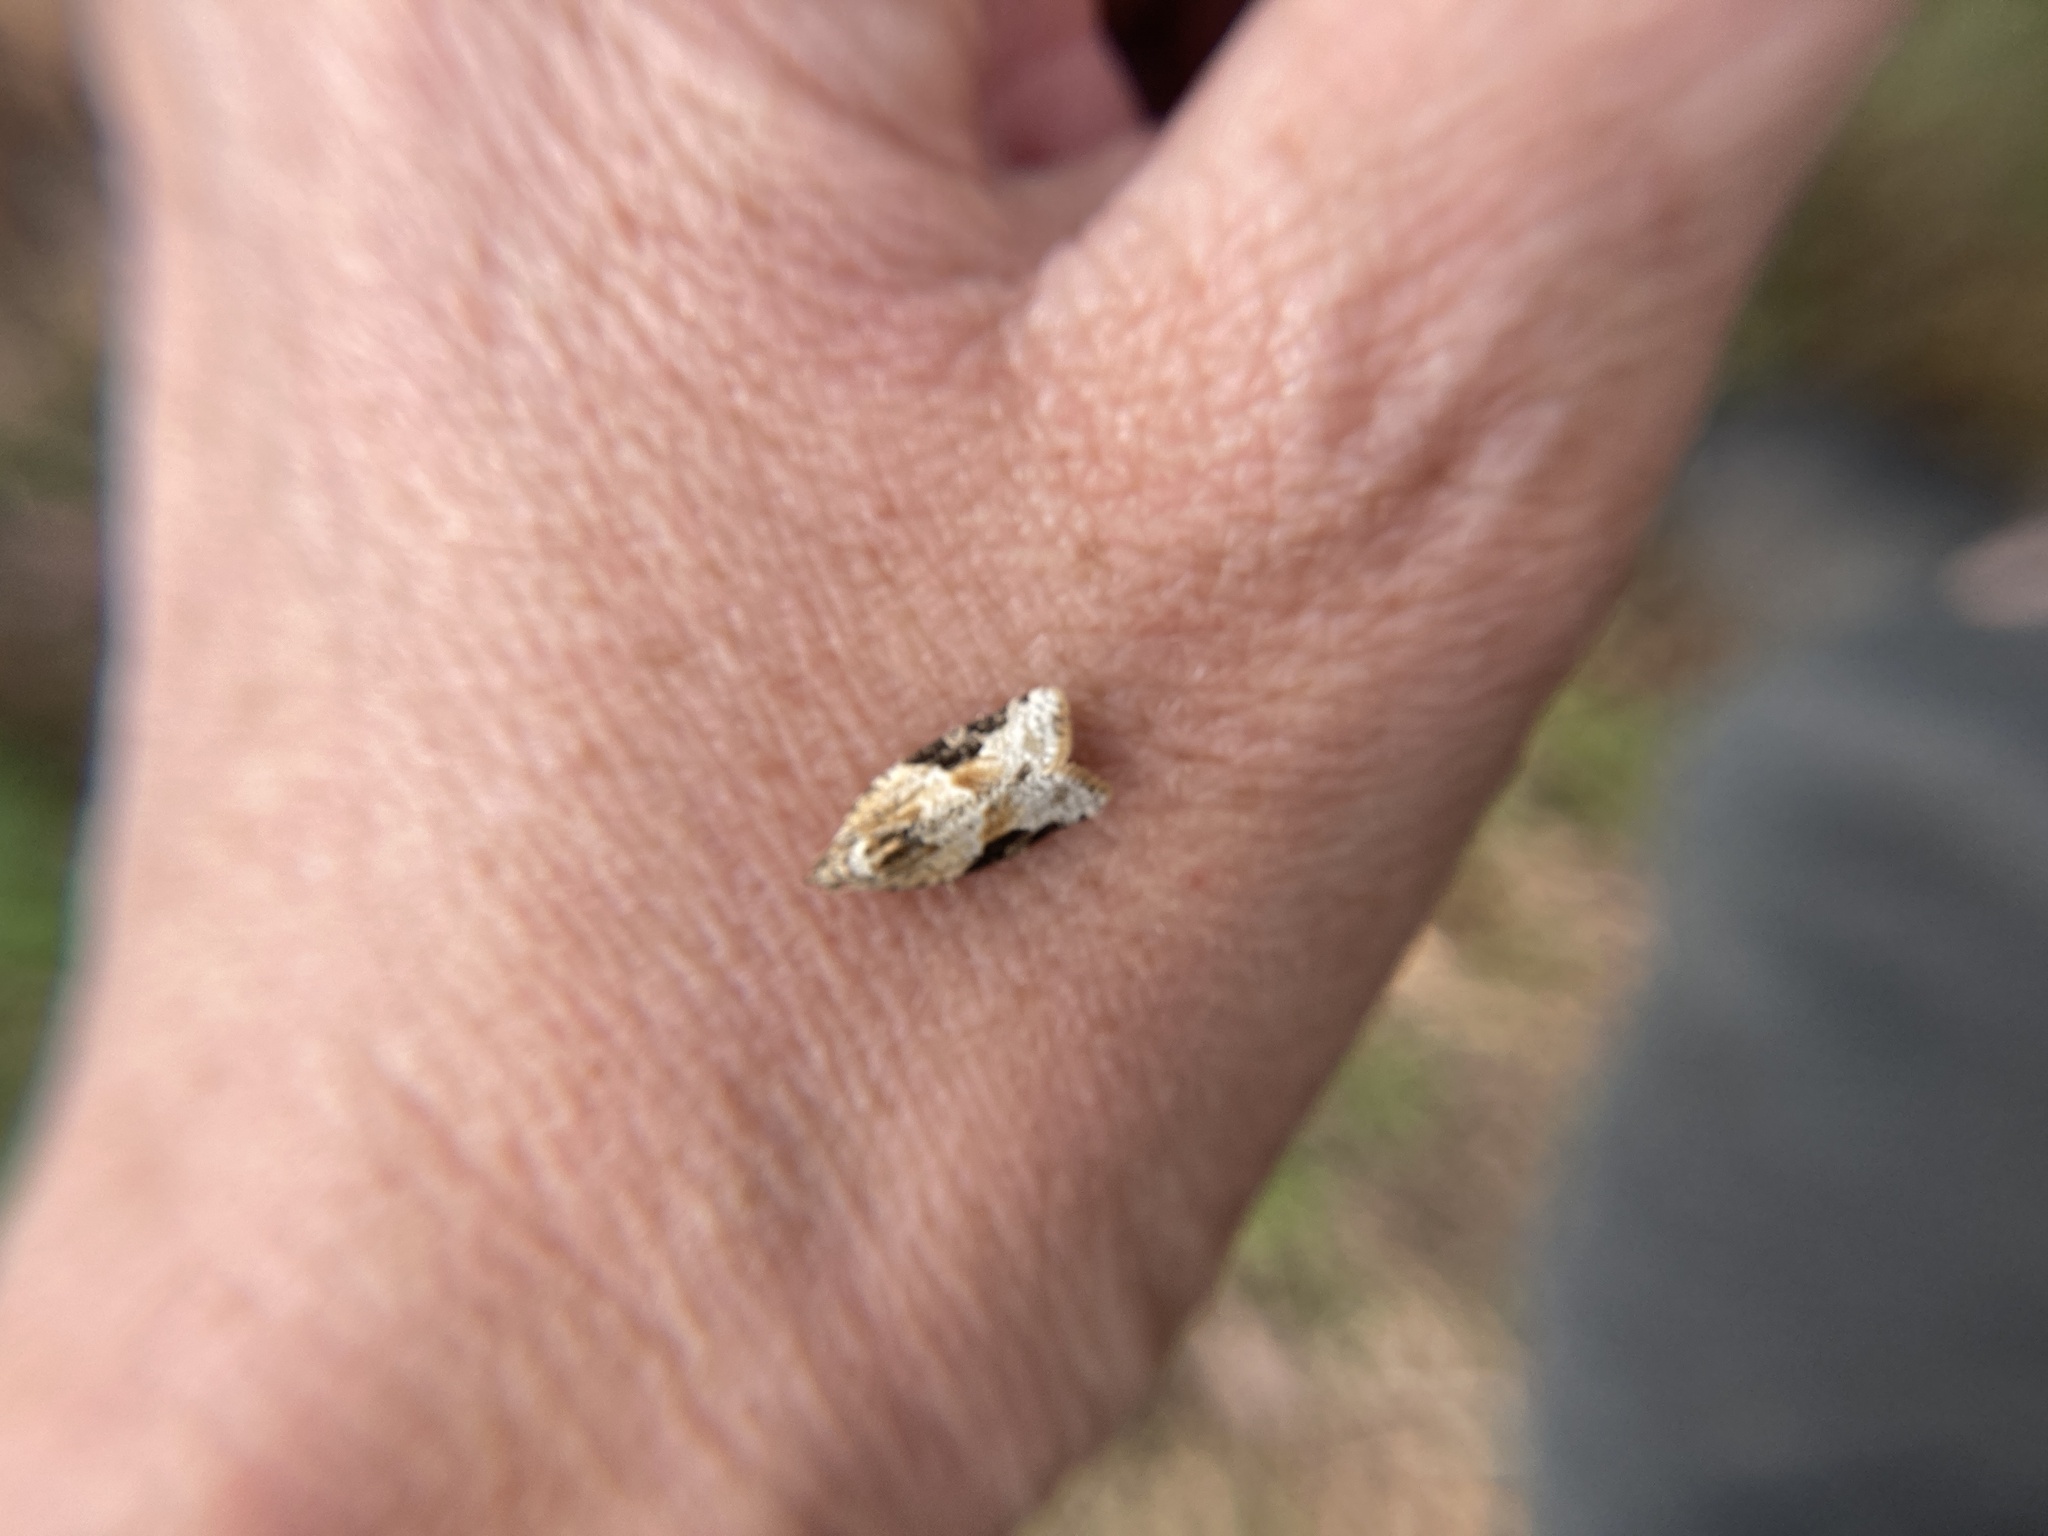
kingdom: Animalia
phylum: Arthropoda
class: Insecta
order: Lepidoptera
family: Tortricidae
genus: Argyrotaenia
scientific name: Argyrotaenia mariana
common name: Gray-banded leafroller moth
